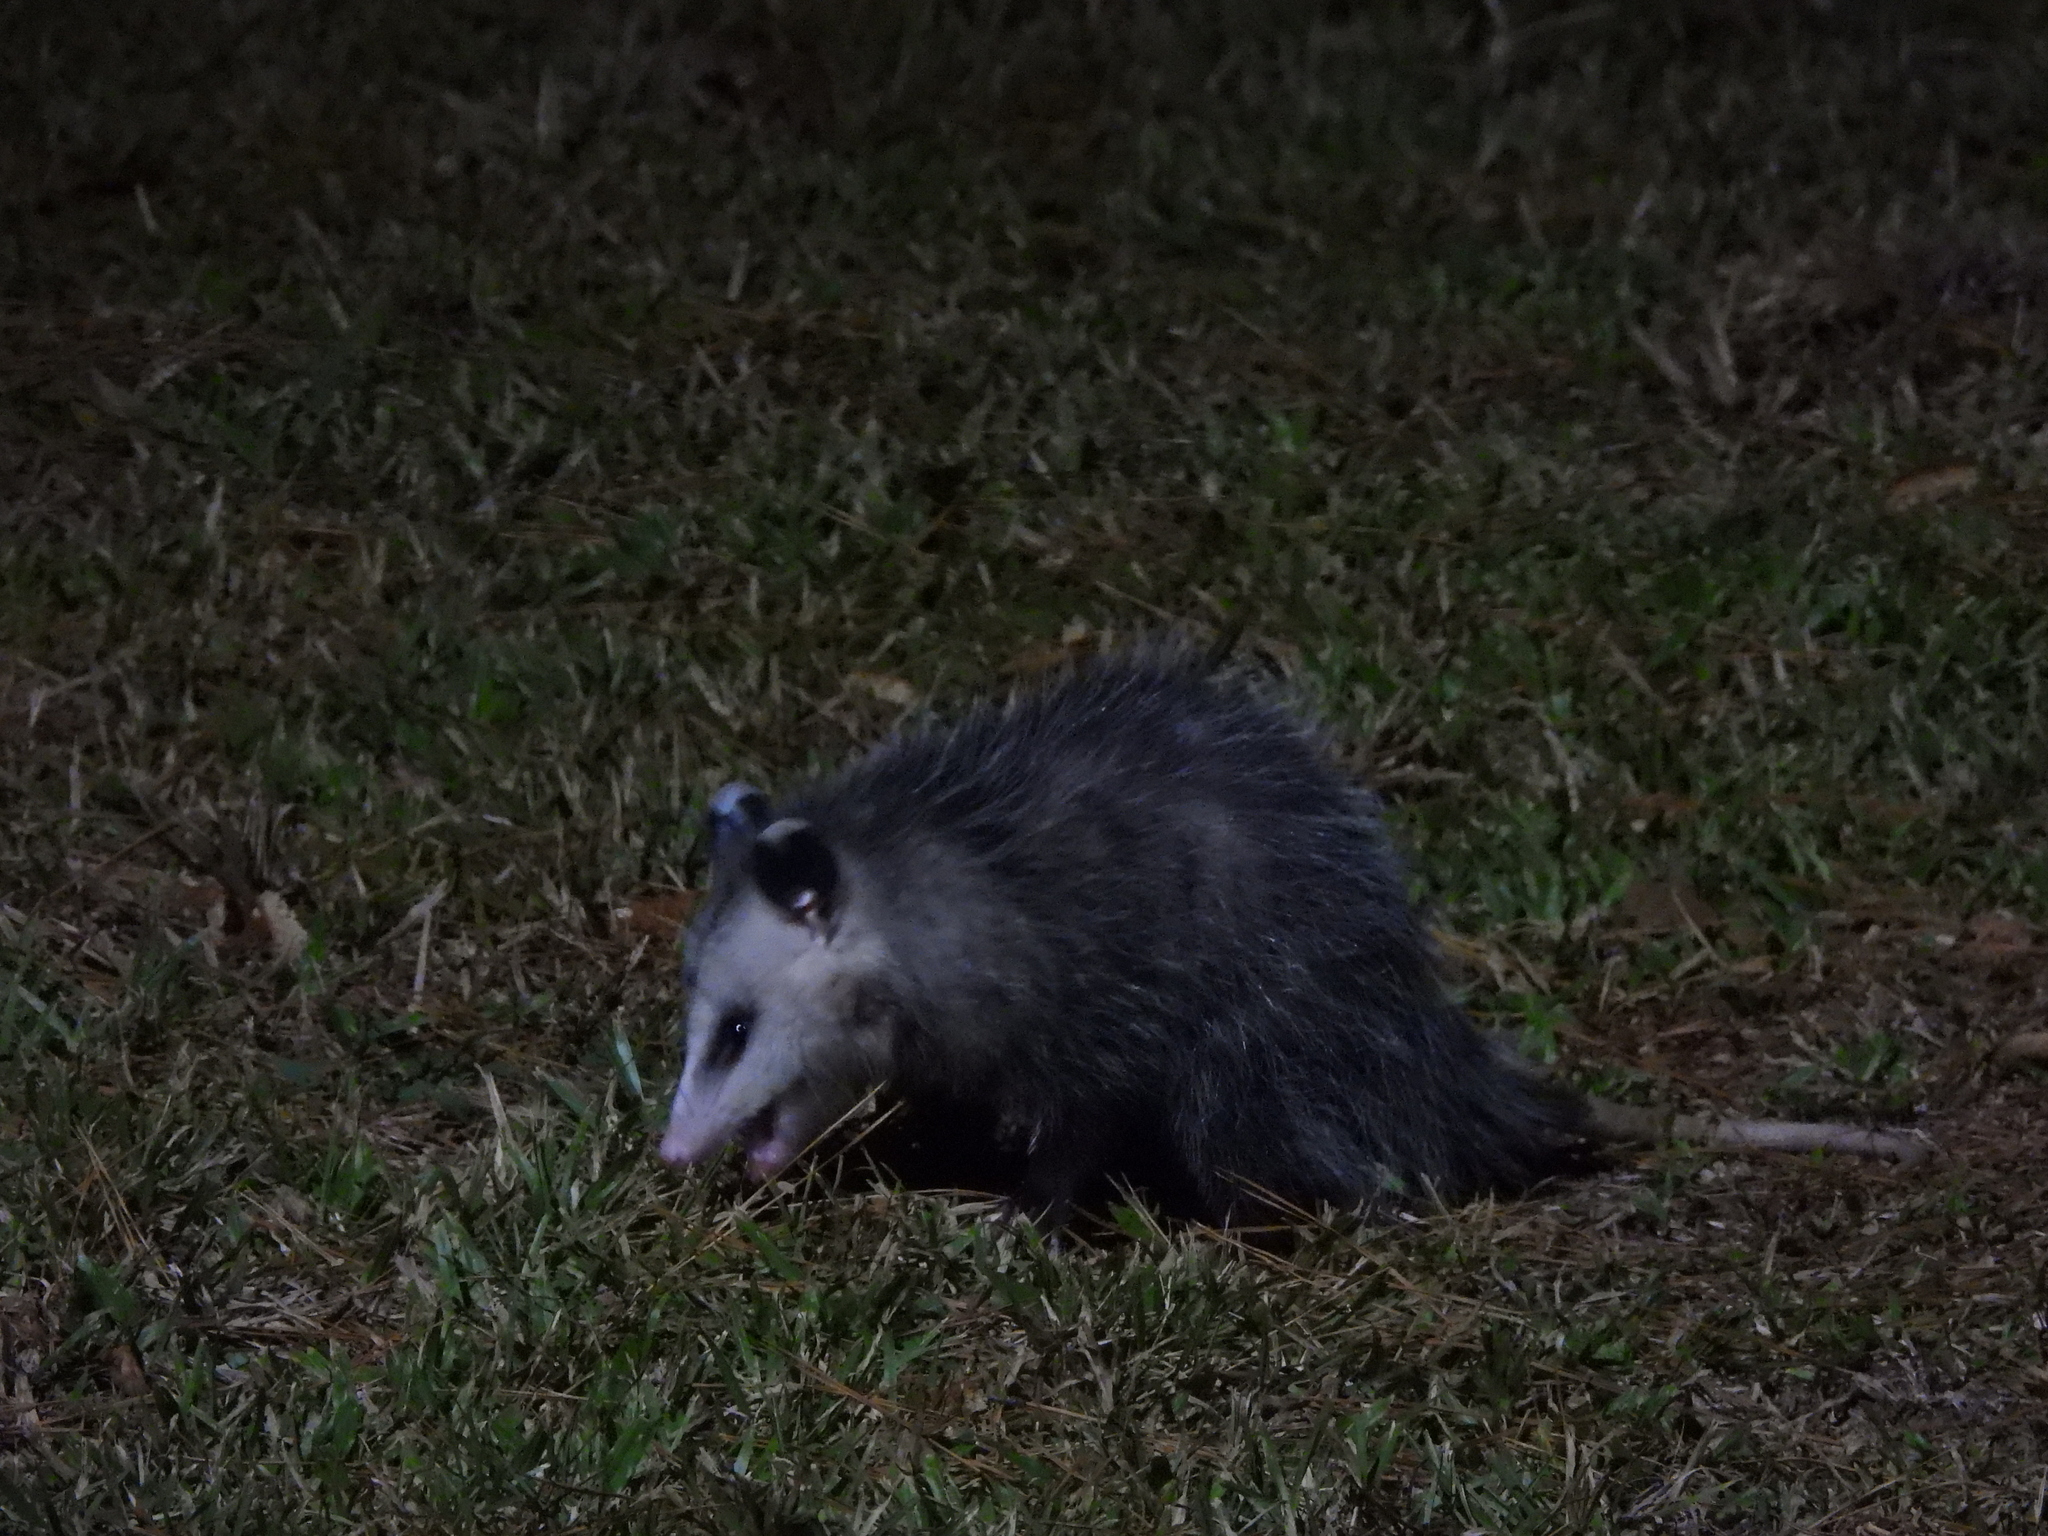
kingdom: Animalia
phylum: Chordata
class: Mammalia
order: Didelphimorphia
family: Didelphidae
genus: Didelphis
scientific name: Didelphis virginiana
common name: Virginia opossum
